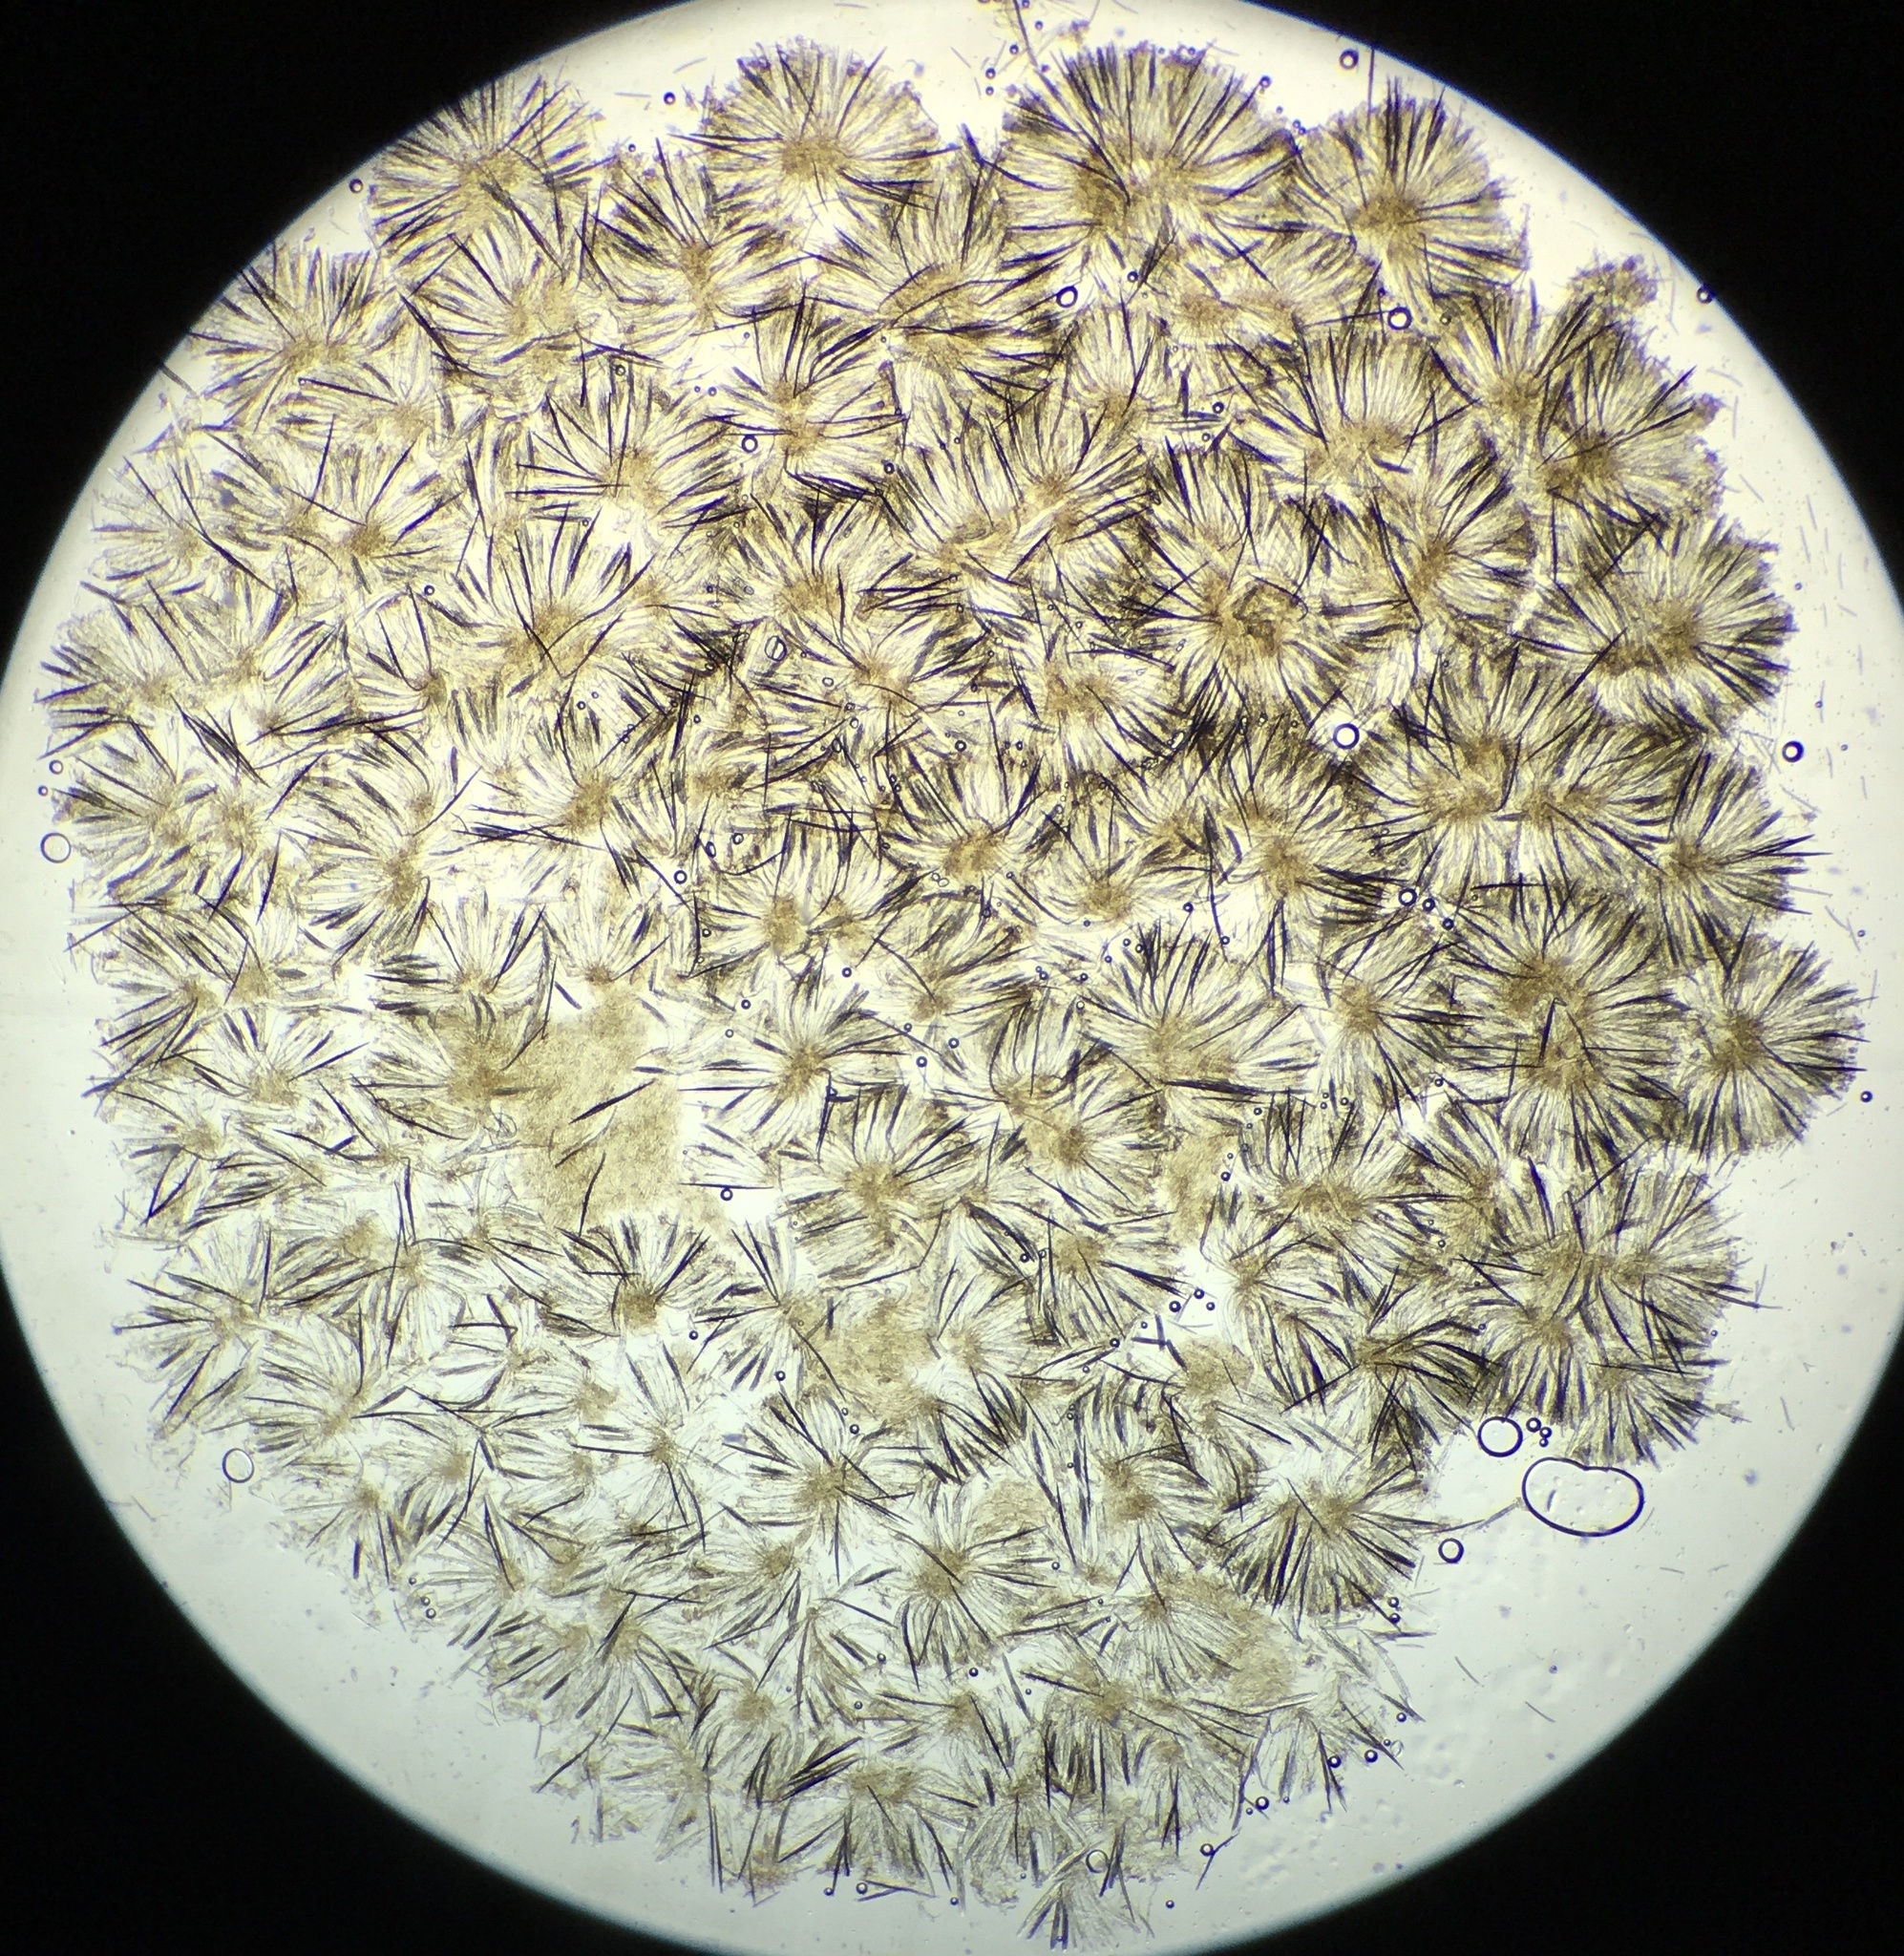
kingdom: Fungi
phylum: Ascomycota
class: Geoglossomycetes
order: Geoglossales
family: Geoglossaceae
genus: Trichoglossum
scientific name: Trichoglossum walteri
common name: Short-spored earthtongue
